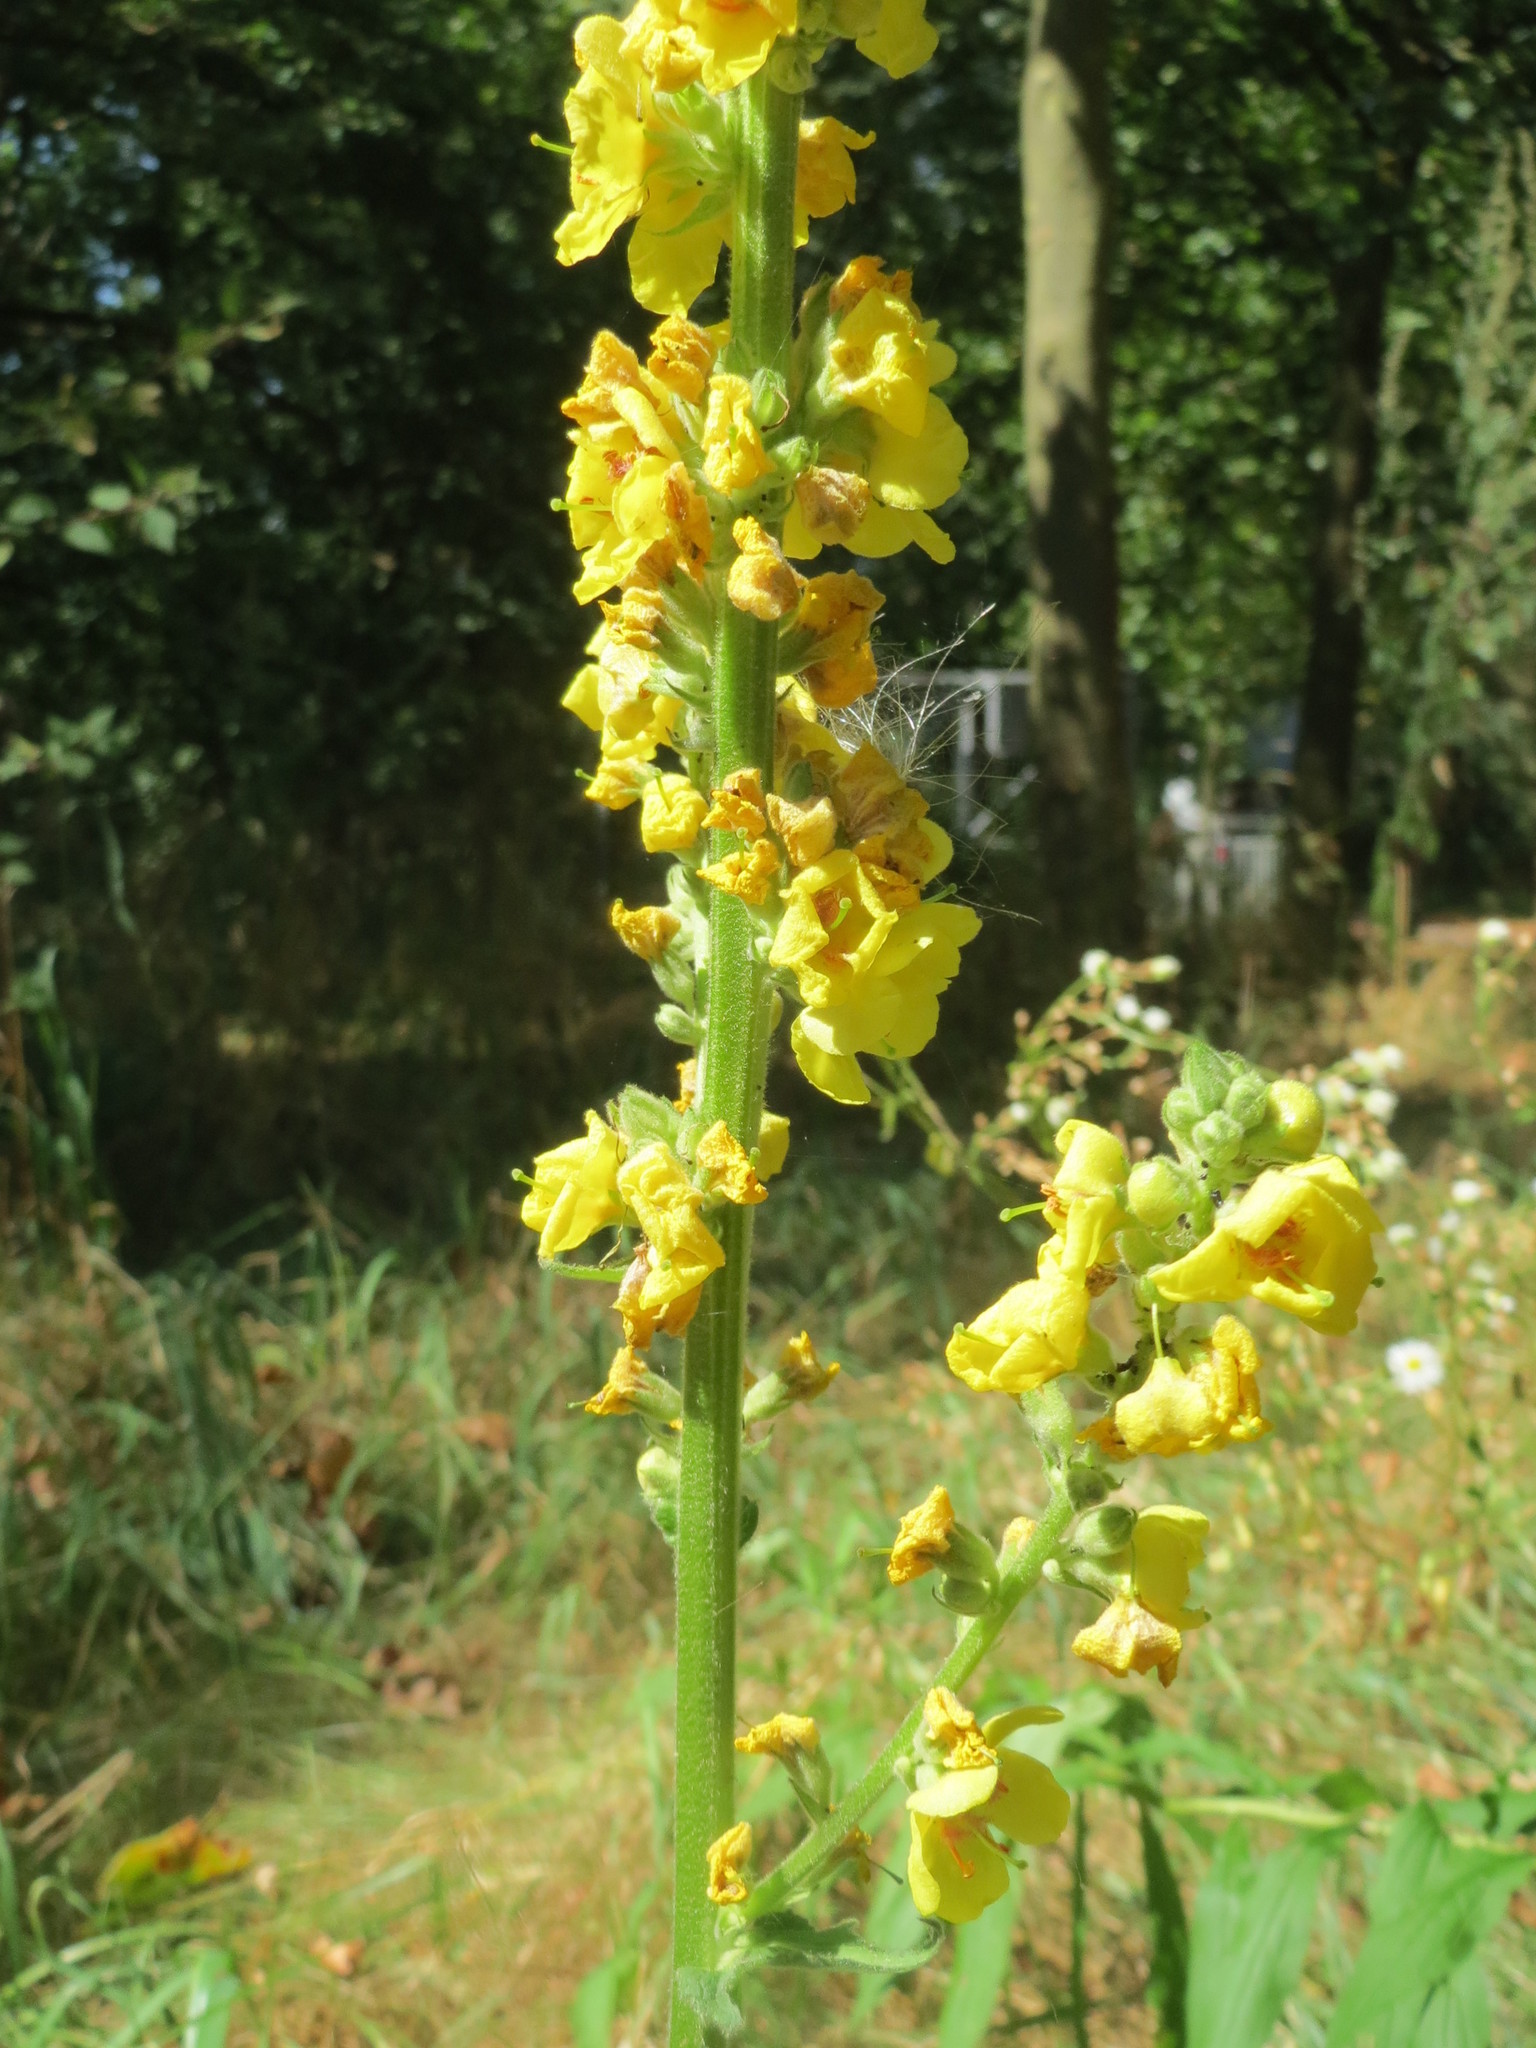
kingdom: Plantae
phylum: Tracheophyta
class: Magnoliopsida
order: Lamiales
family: Scrophulariaceae
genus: Verbascum
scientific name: Verbascum nigrum
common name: Dark mullein
